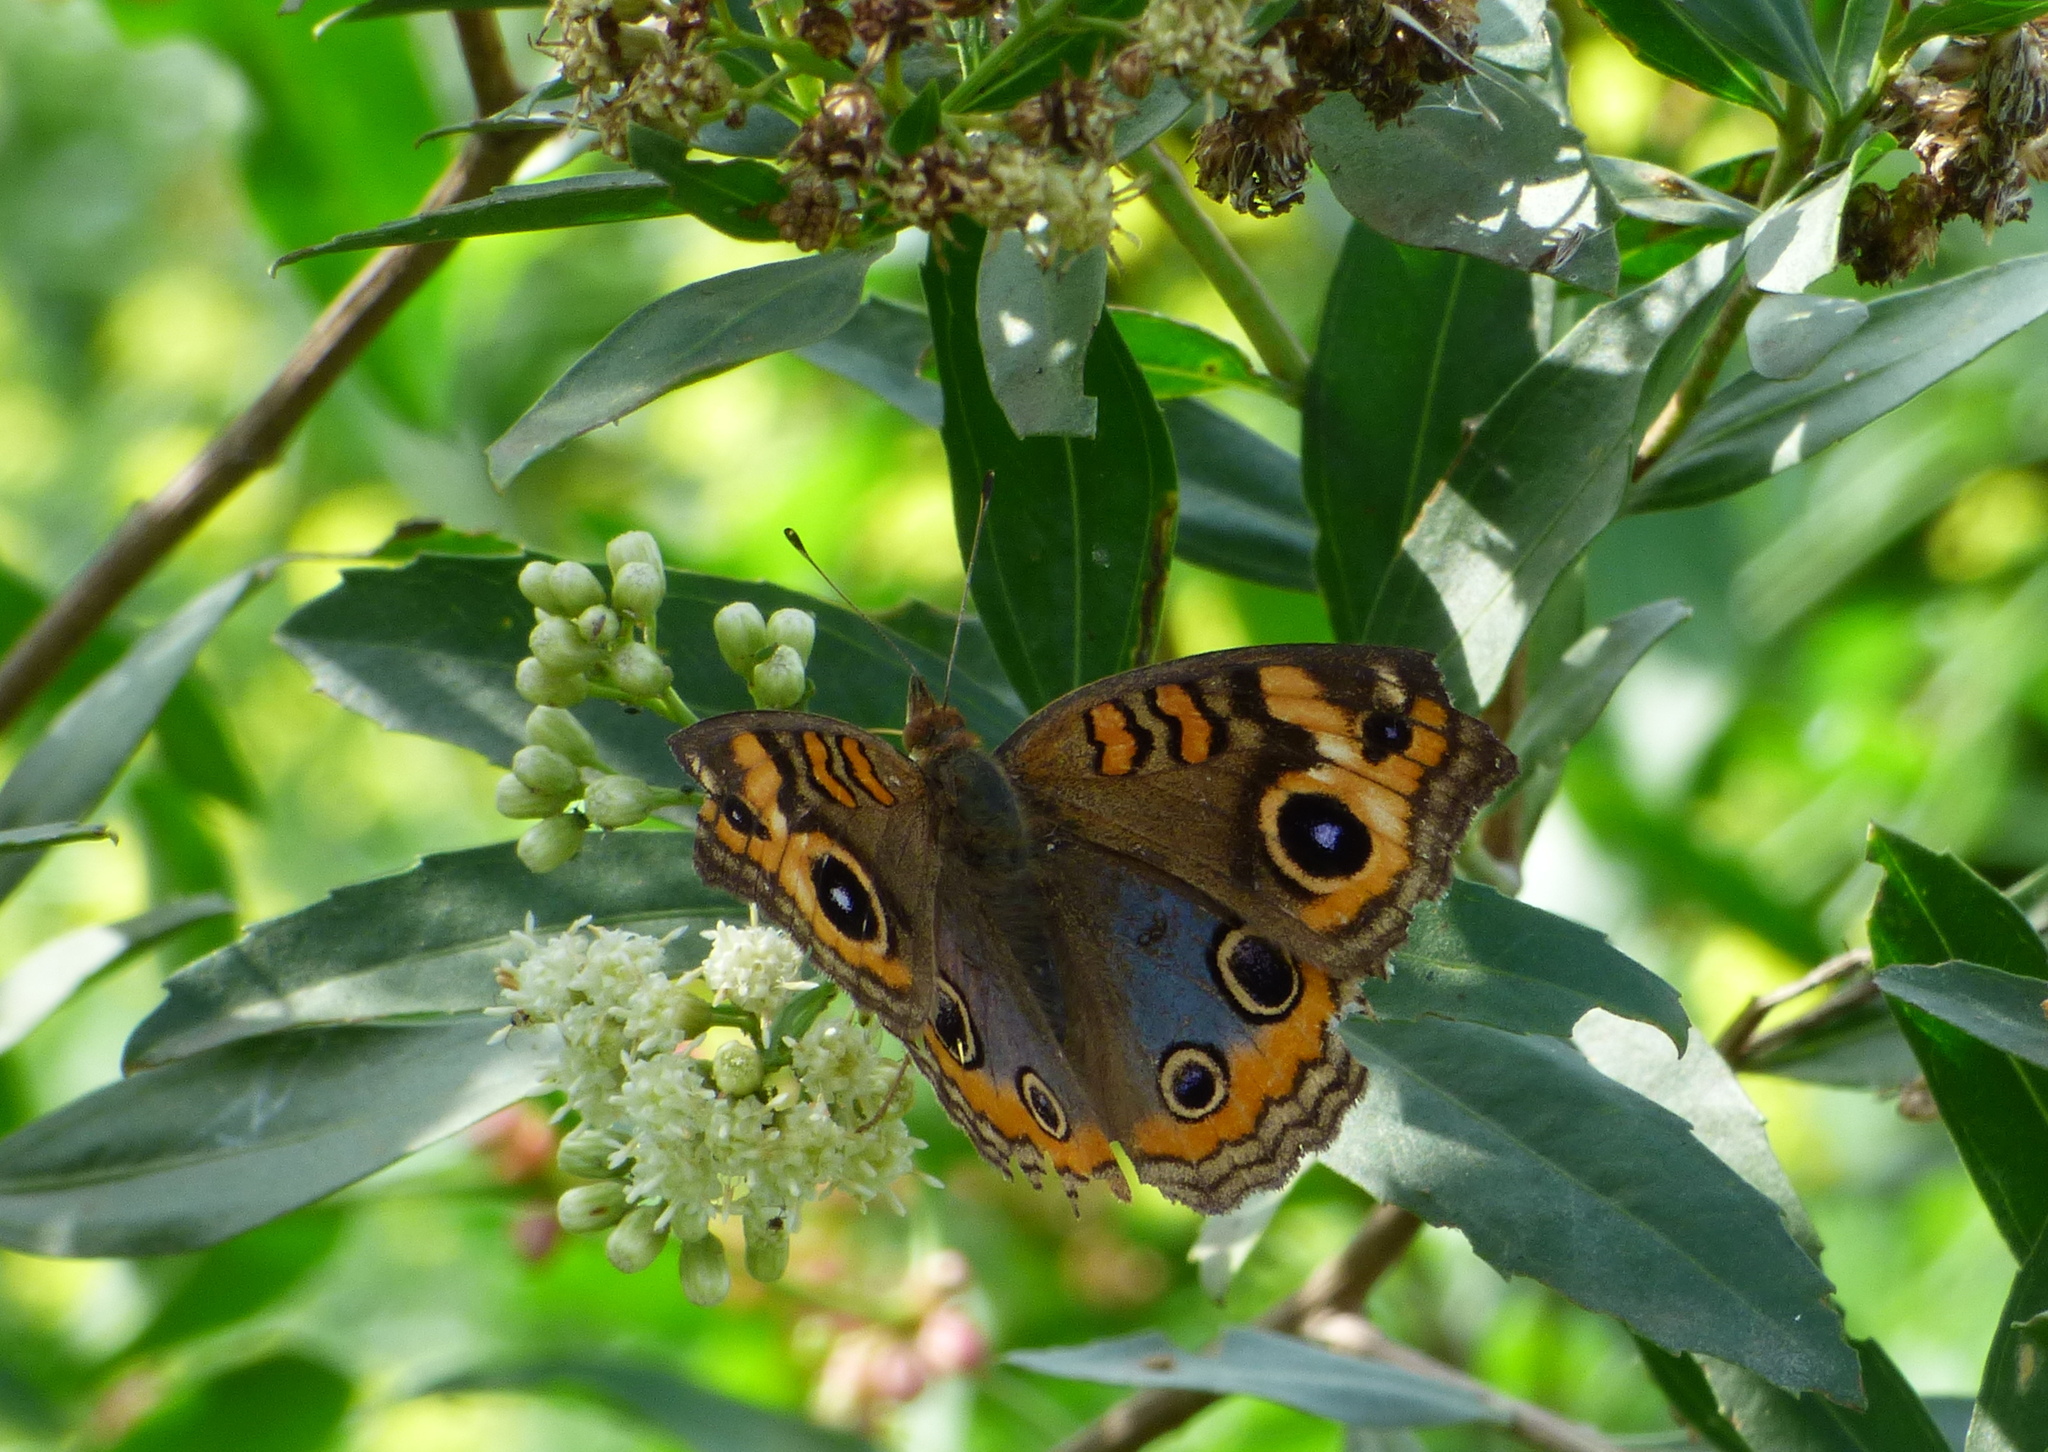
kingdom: Animalia
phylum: Arthropoda
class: Insecta
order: Lepidoptera
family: Nymphalidae
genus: Junonia
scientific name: Junonia lavinia
